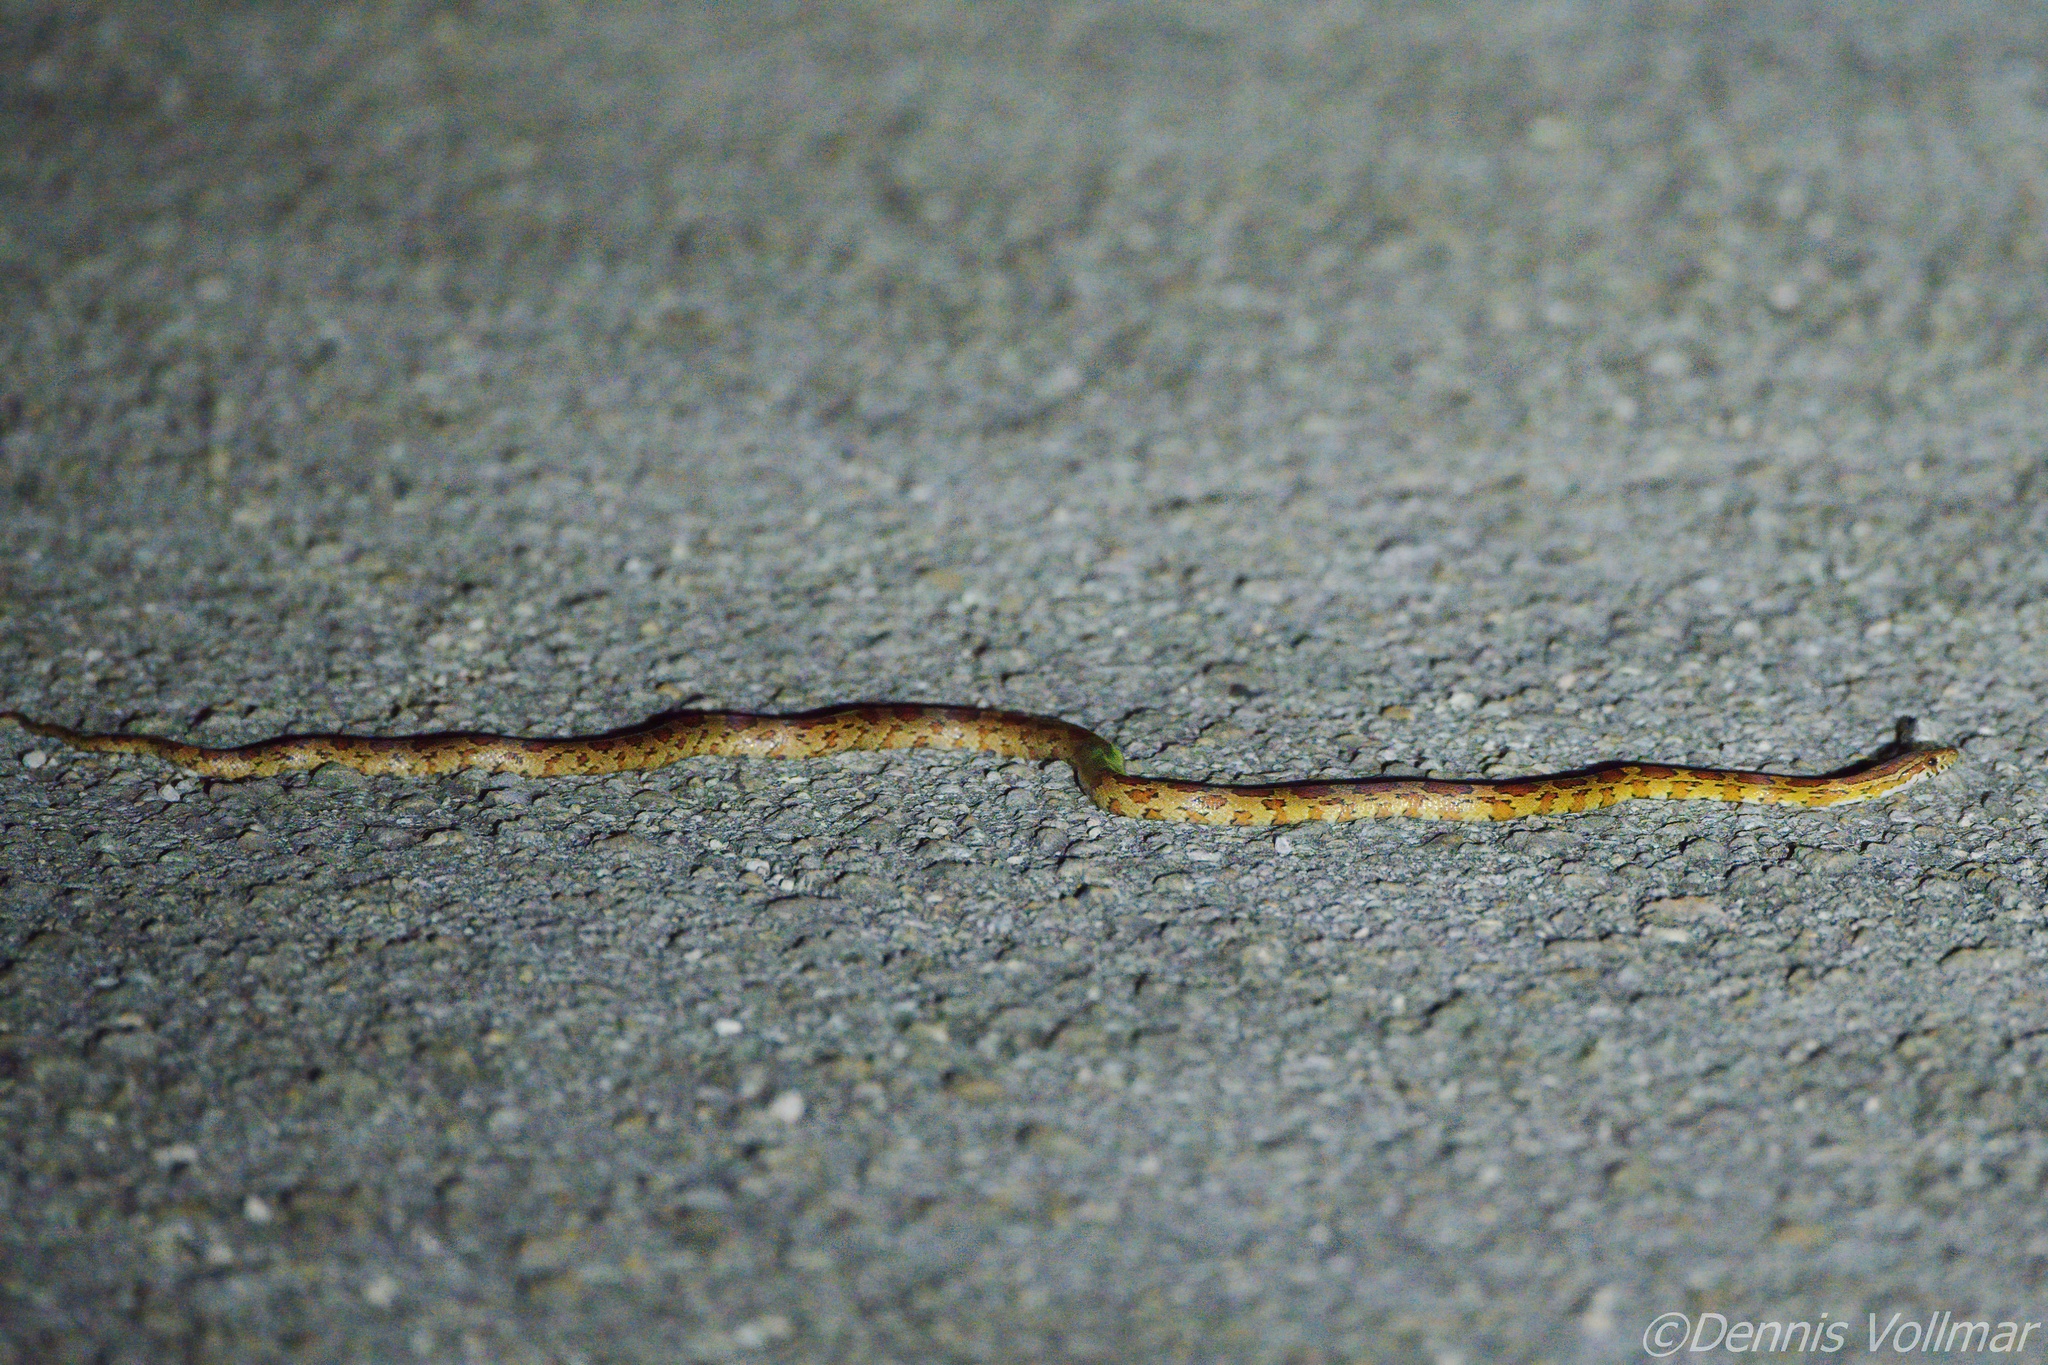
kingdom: Animalia
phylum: Chordata
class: Squamata
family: Colubridae
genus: Pantherophis
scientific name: Pantherophis guttatus
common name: Red cornsnake
